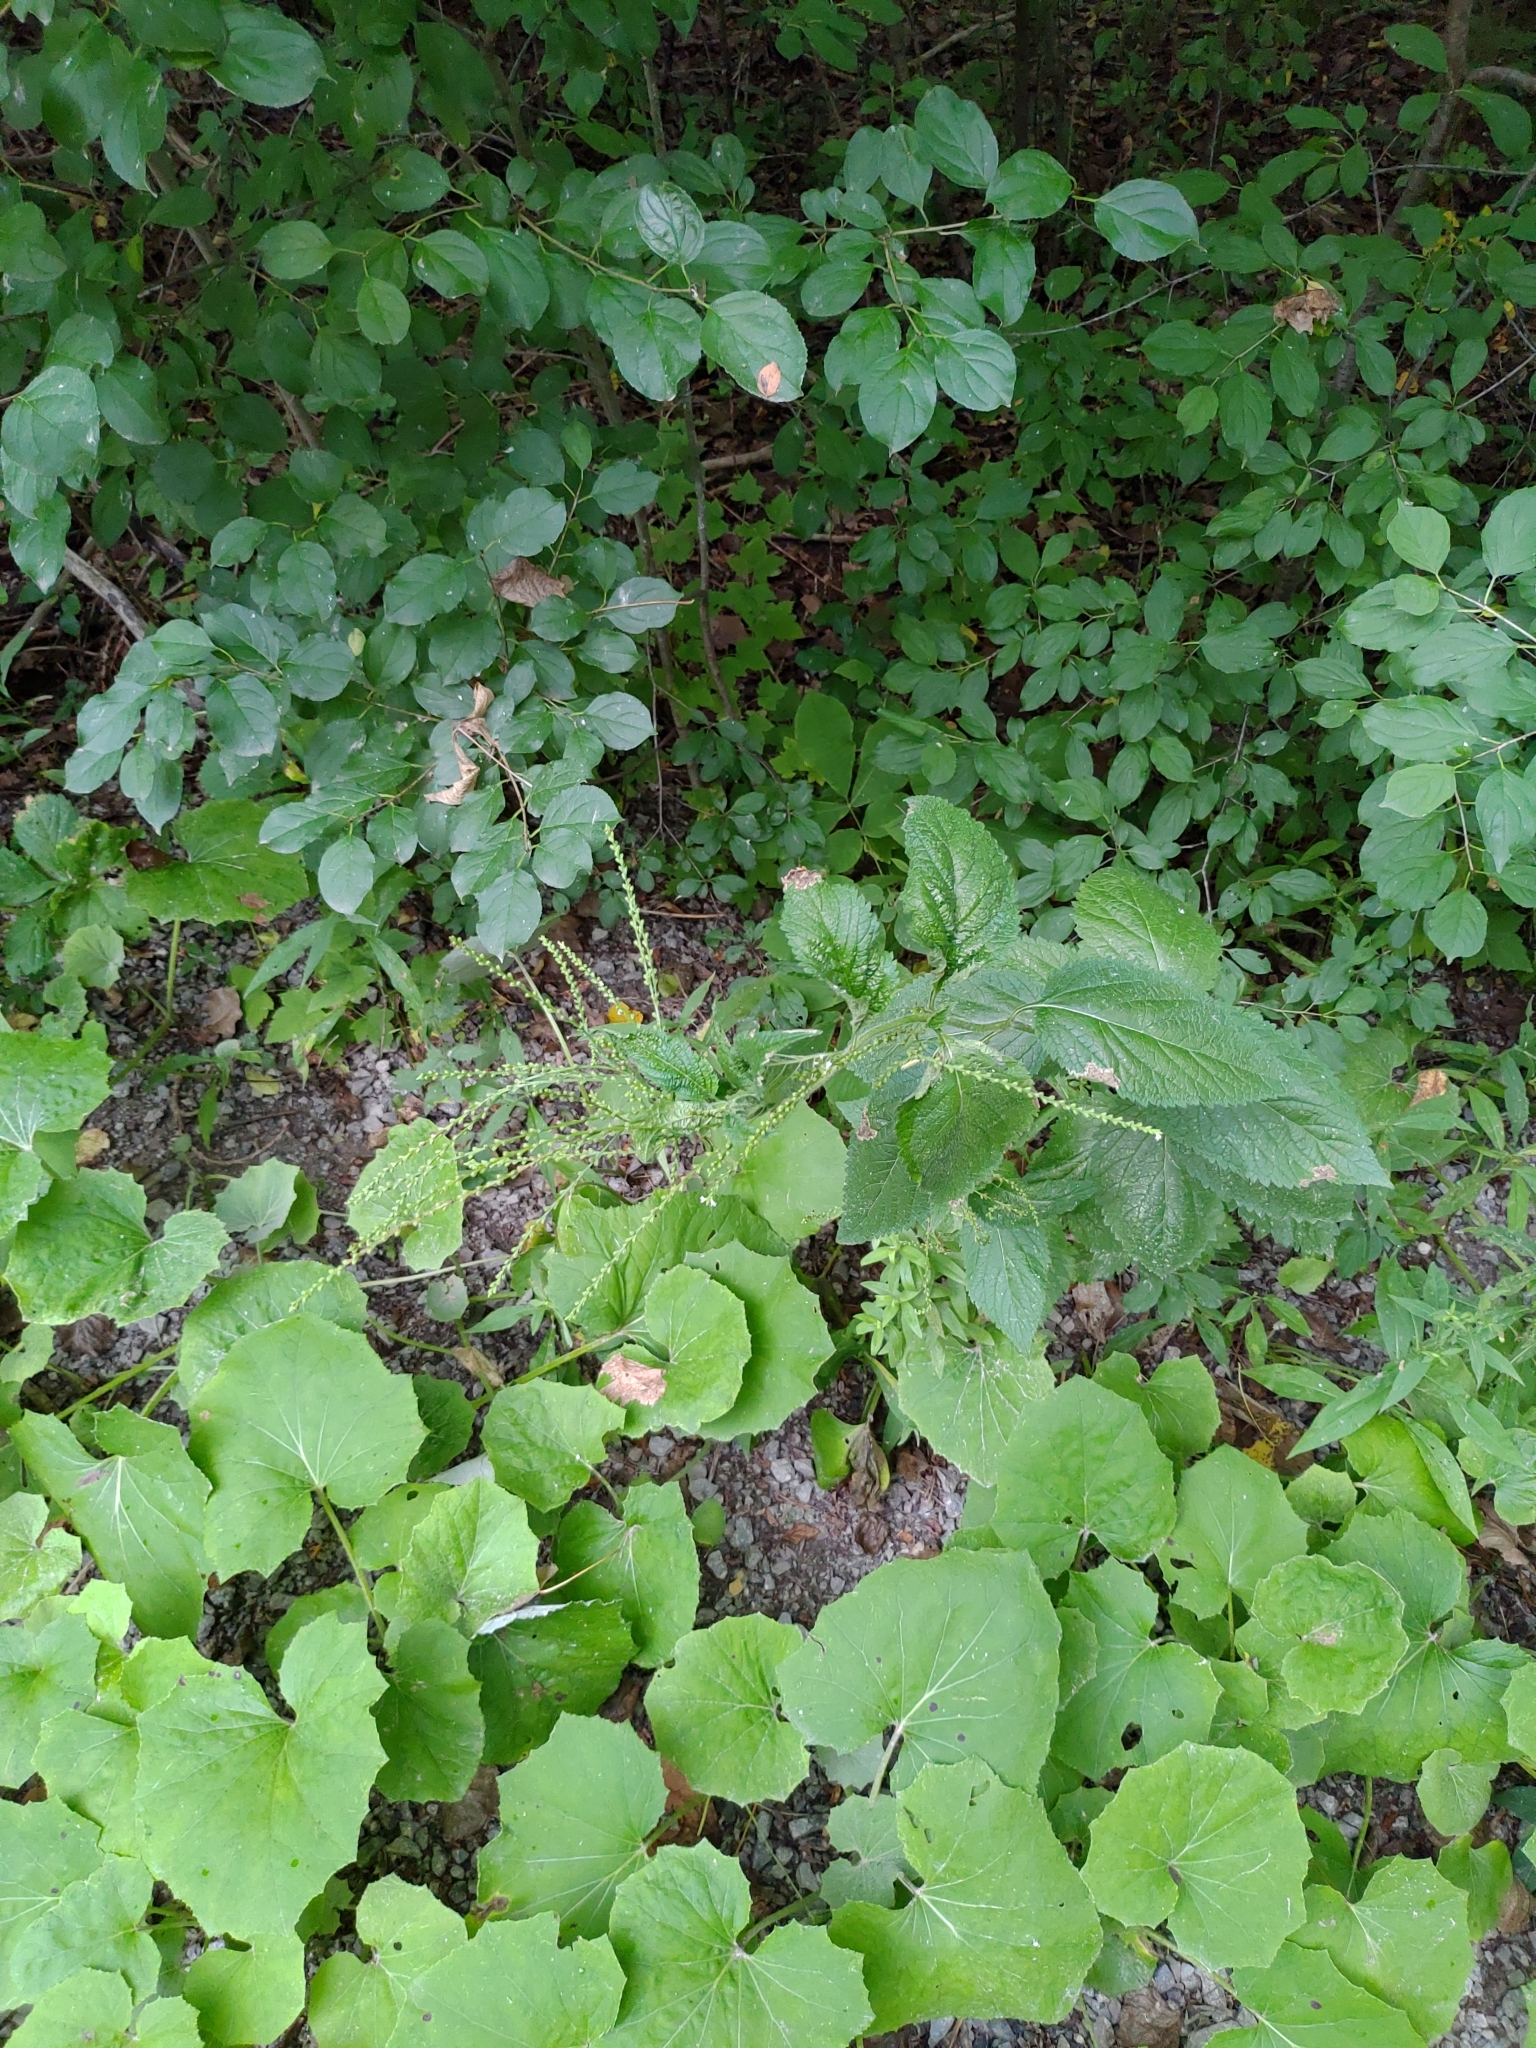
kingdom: Plantae
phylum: Tracheophyta
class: Magnoliopsida
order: Lamiales
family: Verbenaceae
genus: Verbena
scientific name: Verbena urticifolia
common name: Nettle-leaved vervain
